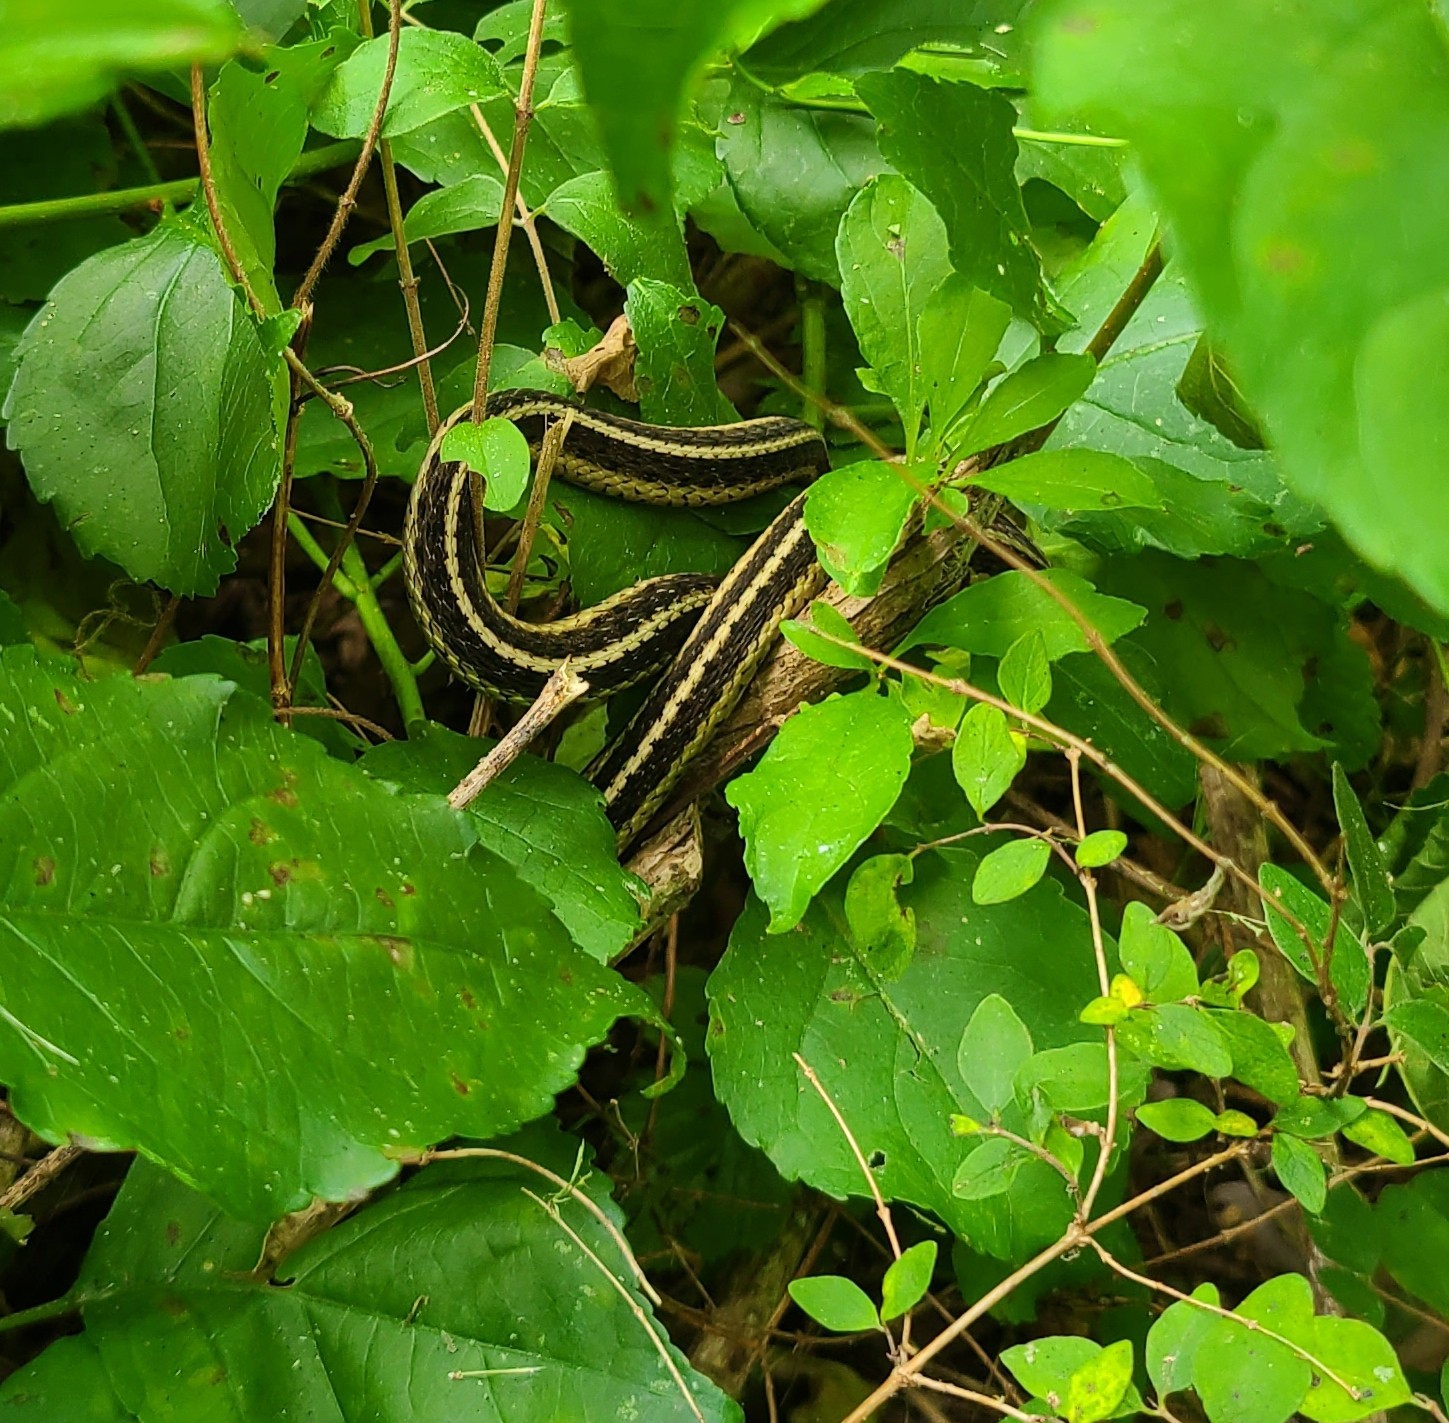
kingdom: Animalia
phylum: Chordata
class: Squamata
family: Colubridae
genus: Thamnophis
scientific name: Thamnophis sirtalis
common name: Common garter snake
